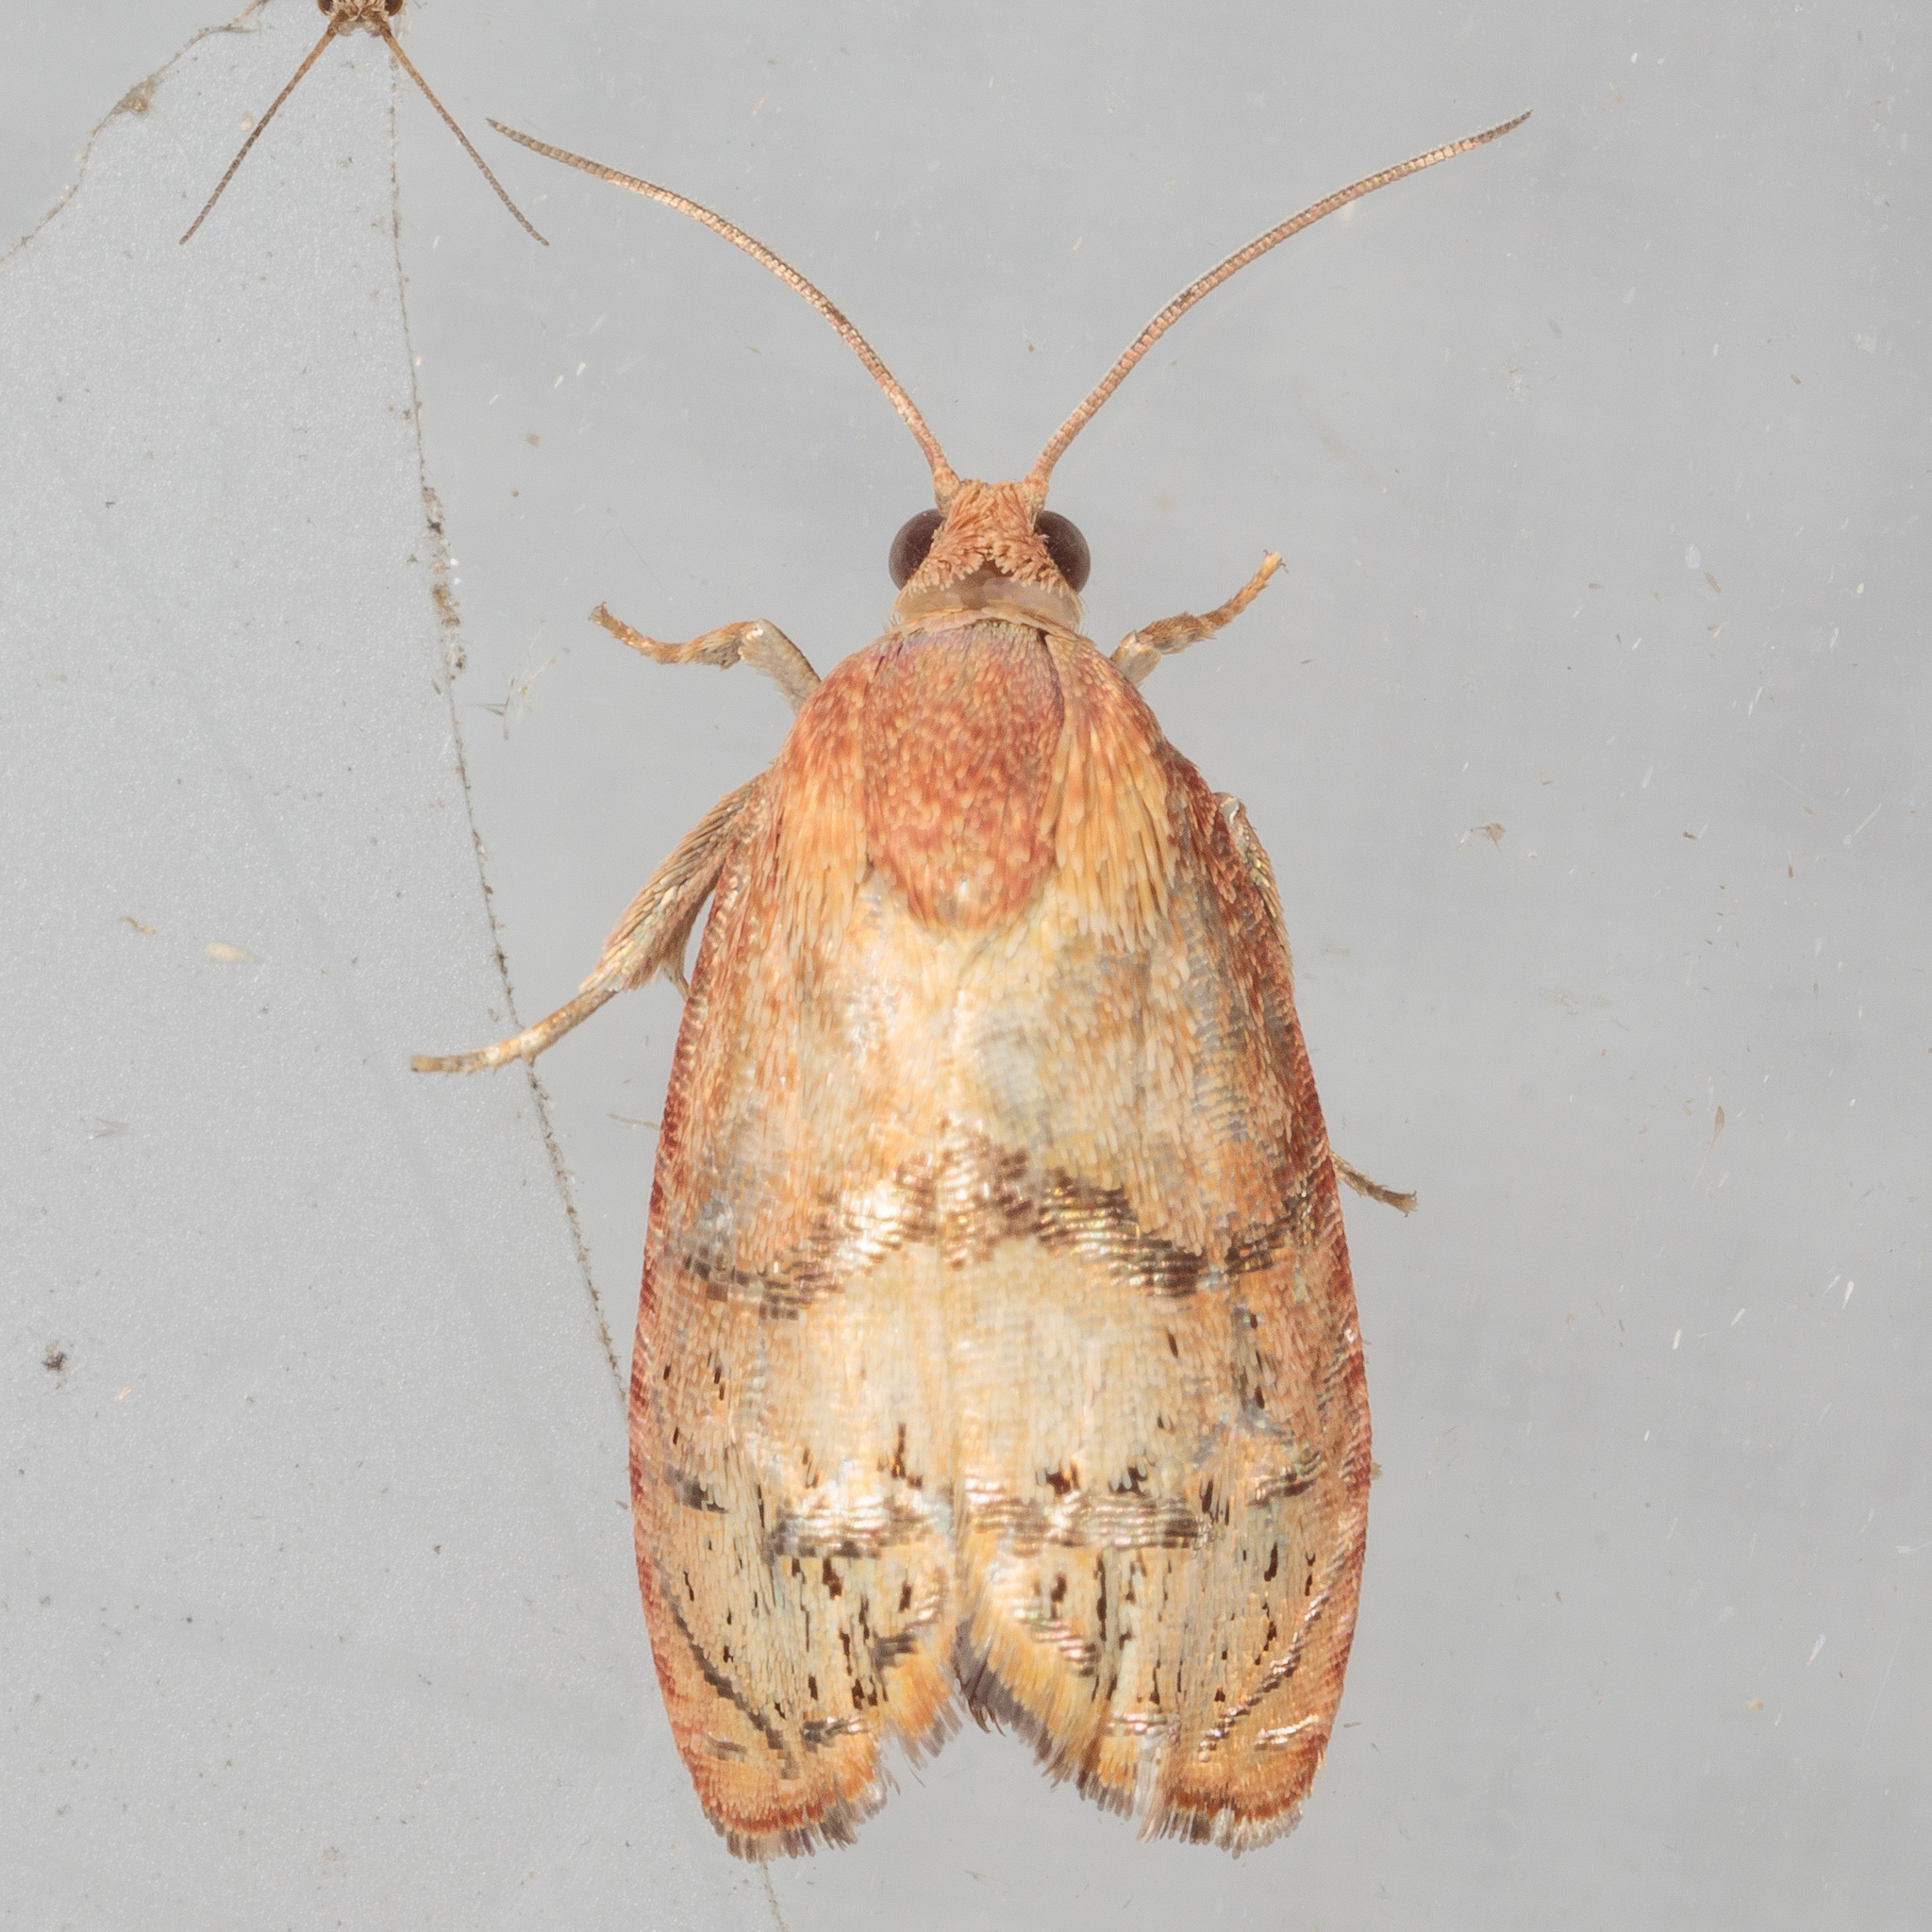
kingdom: Animalia
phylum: Arthropoda
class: Insecta
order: Lepidoptera
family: Tortricidae
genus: Cydia
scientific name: Cydia latiferreana
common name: Filbertworm moth
